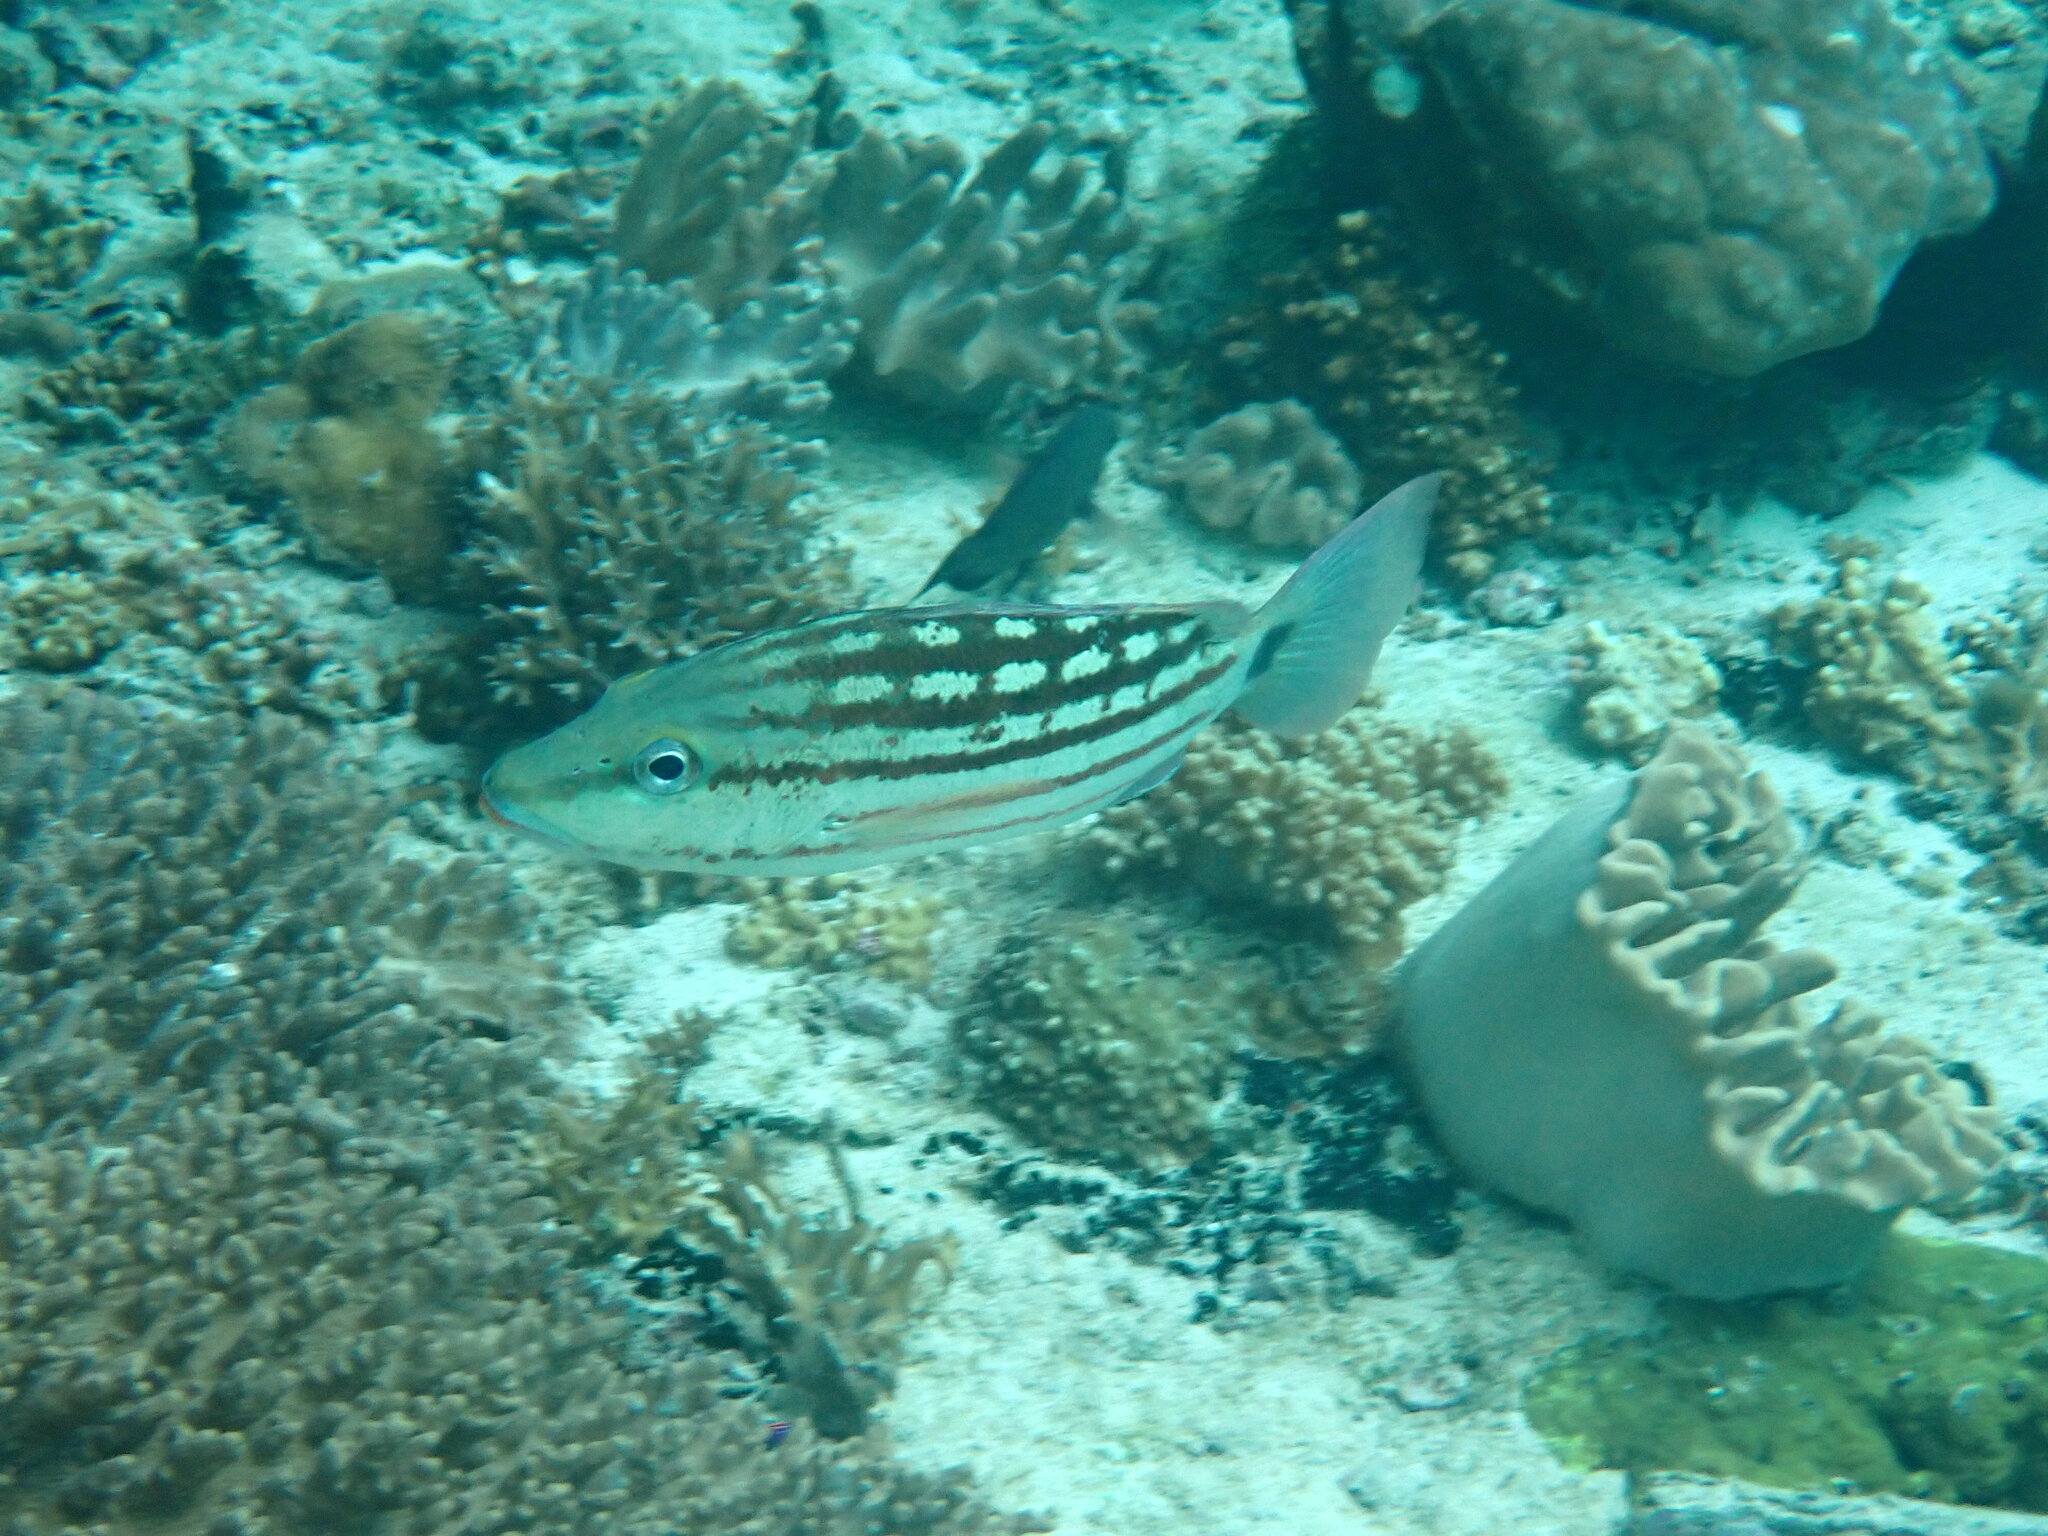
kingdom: Animalia
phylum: Chordata
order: Perciformes
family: Lutjanidae
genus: Lutjanus
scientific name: Lutjanus decussatus
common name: Checkered snapper
